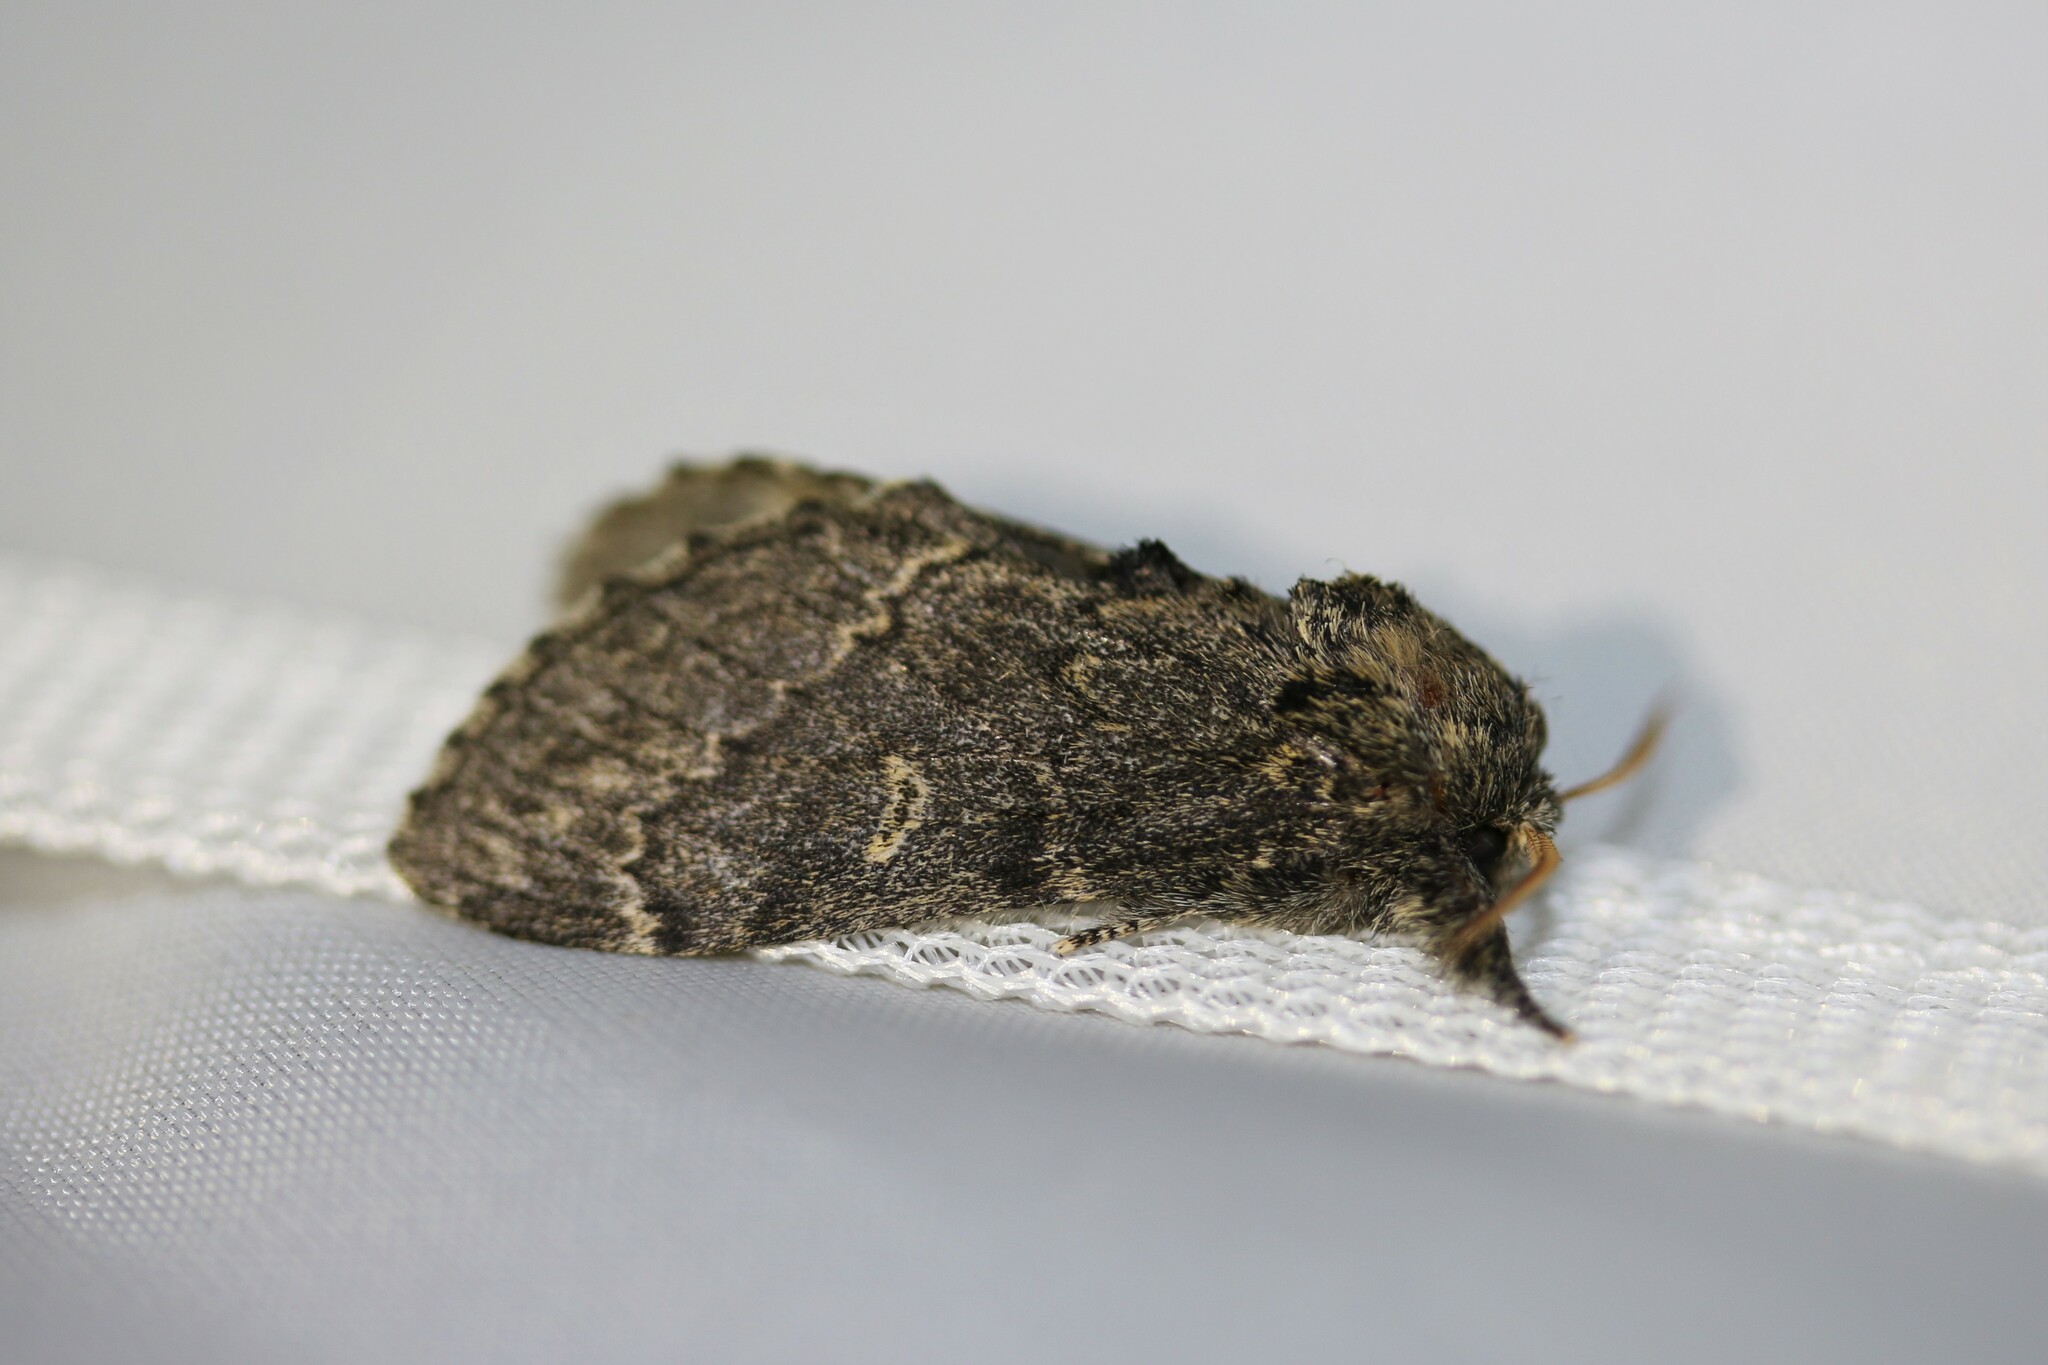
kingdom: Animalia
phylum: Arthropoda
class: Insecta
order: Lepidoptera
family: Notodontidae
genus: Notodonta
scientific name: Notodonta torva
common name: Large dark prominent
